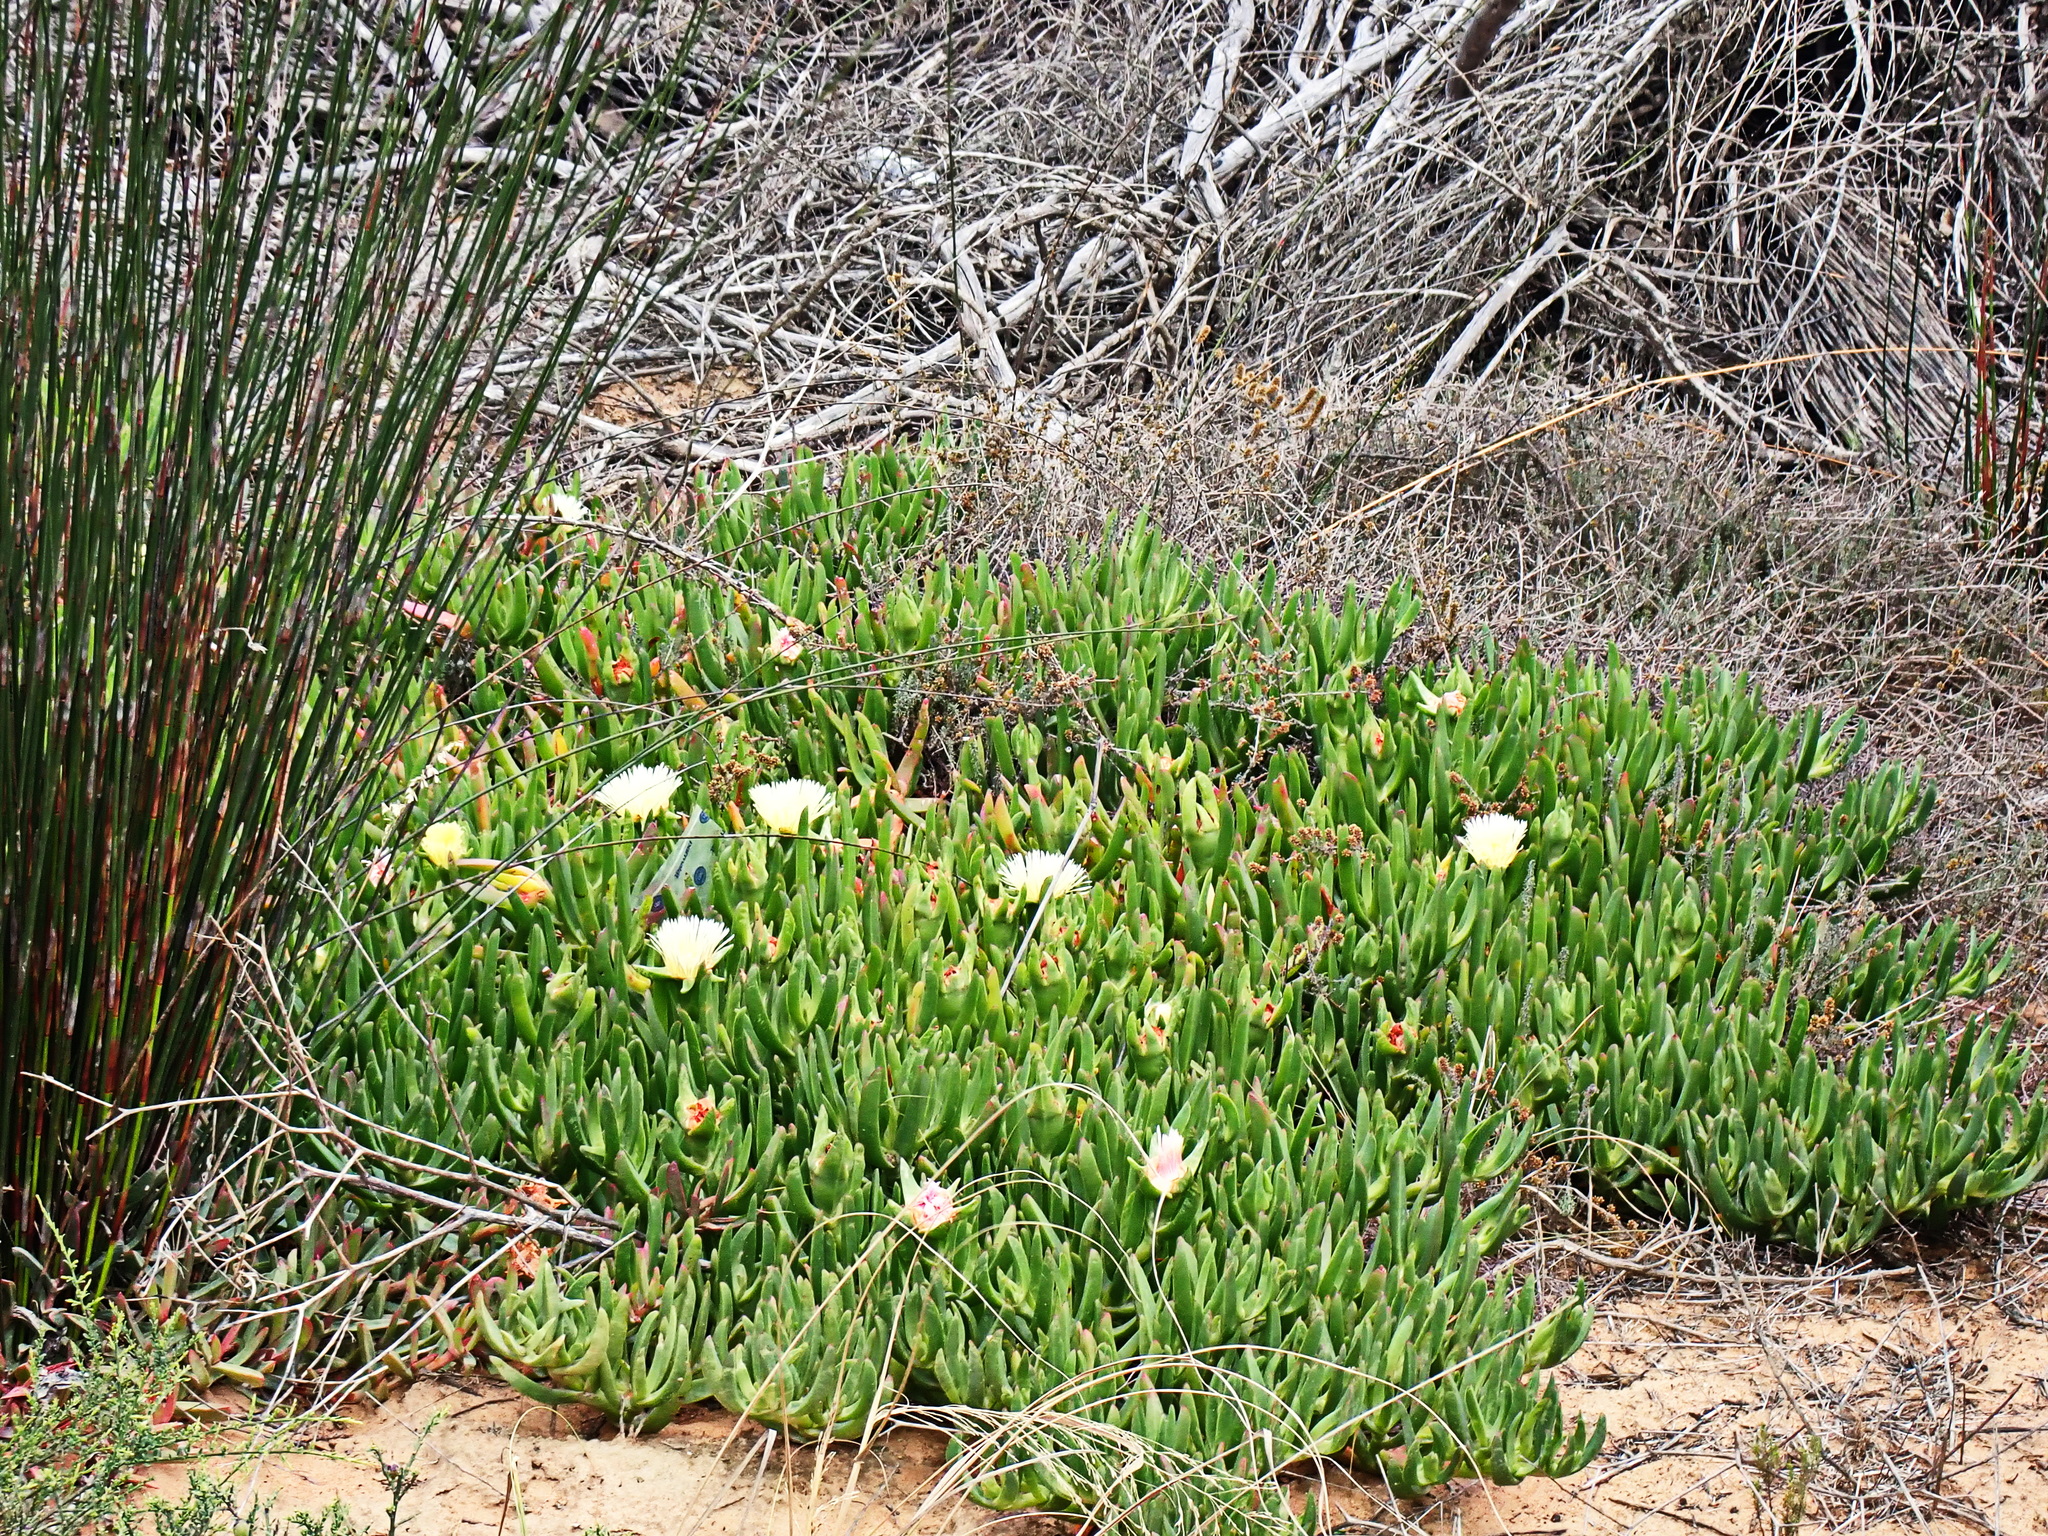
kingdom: Plantae
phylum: Tracheophyta
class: Magnoliopsida
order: Caryophyllales
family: Aizoaceae
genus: Carpobrotus
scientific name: Carpobrotus edulis
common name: Hottentot-fig
